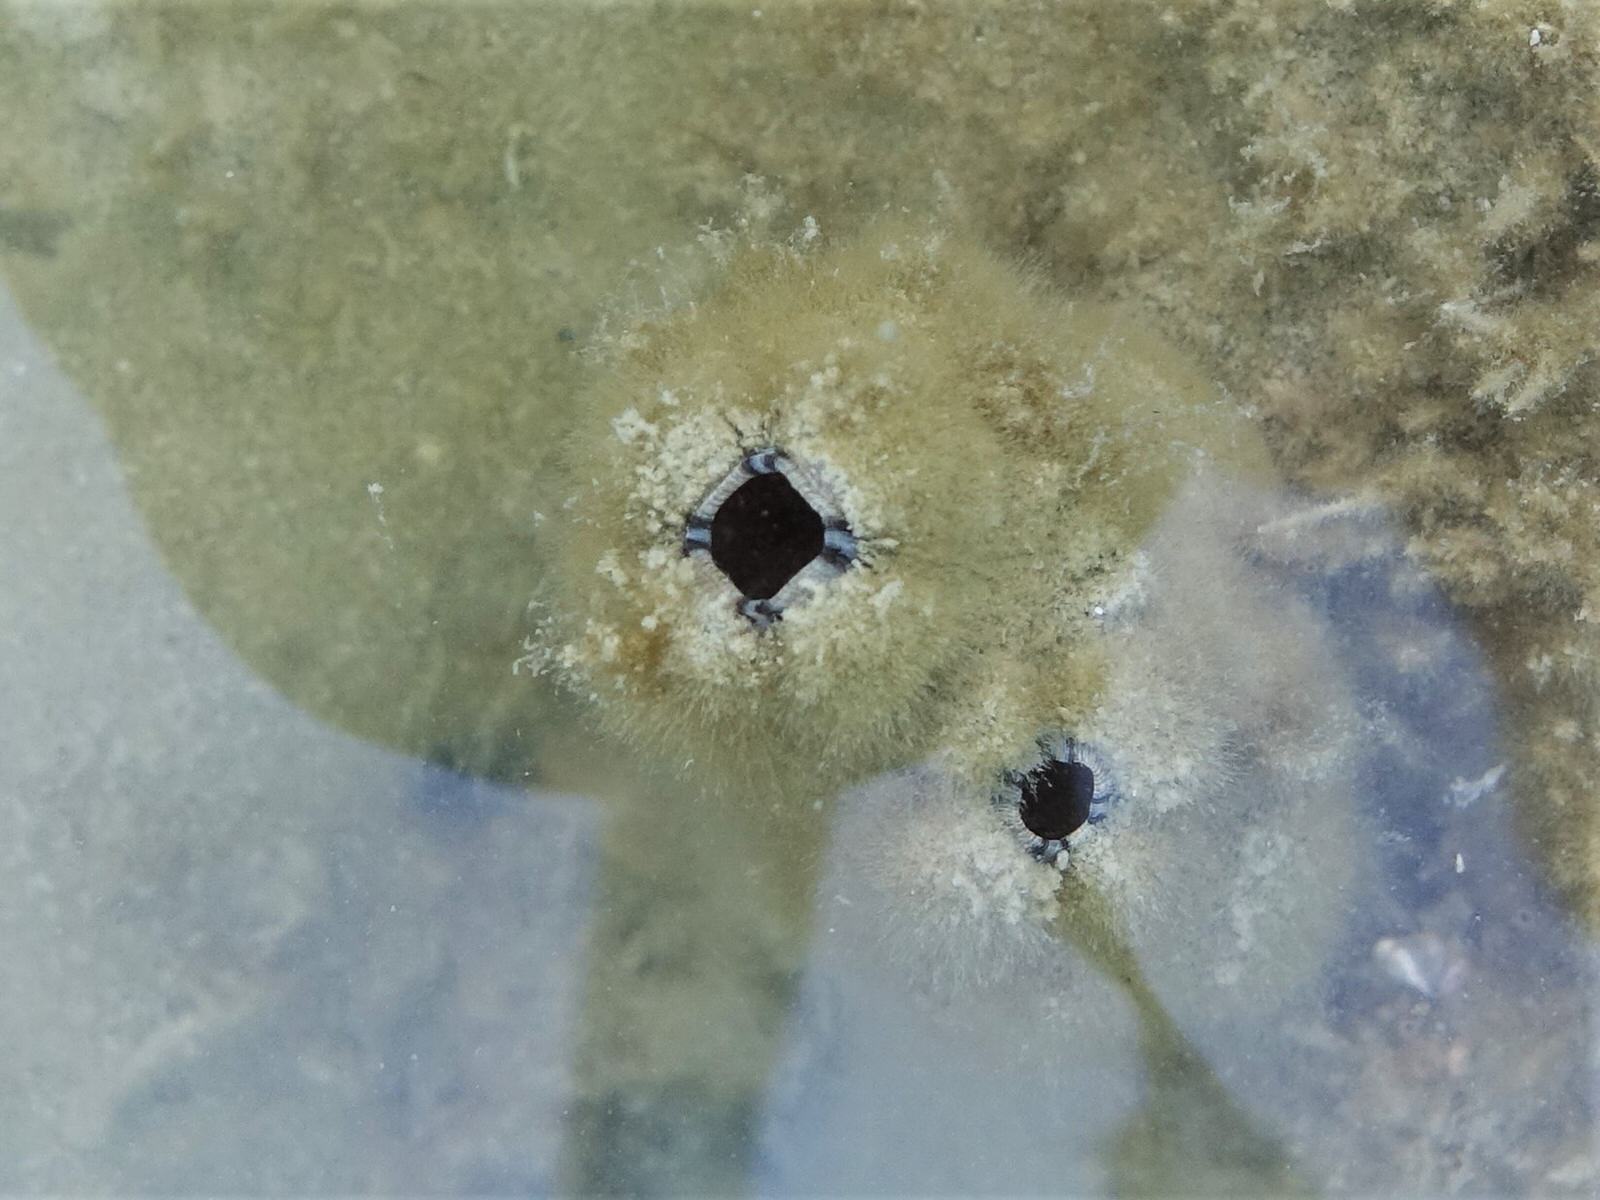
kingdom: Animalia
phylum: Chordata
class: Ascidiacea
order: Stolidobranchia
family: Styelidae
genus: Styela
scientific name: Styela plicata
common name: Pleated tunicate
